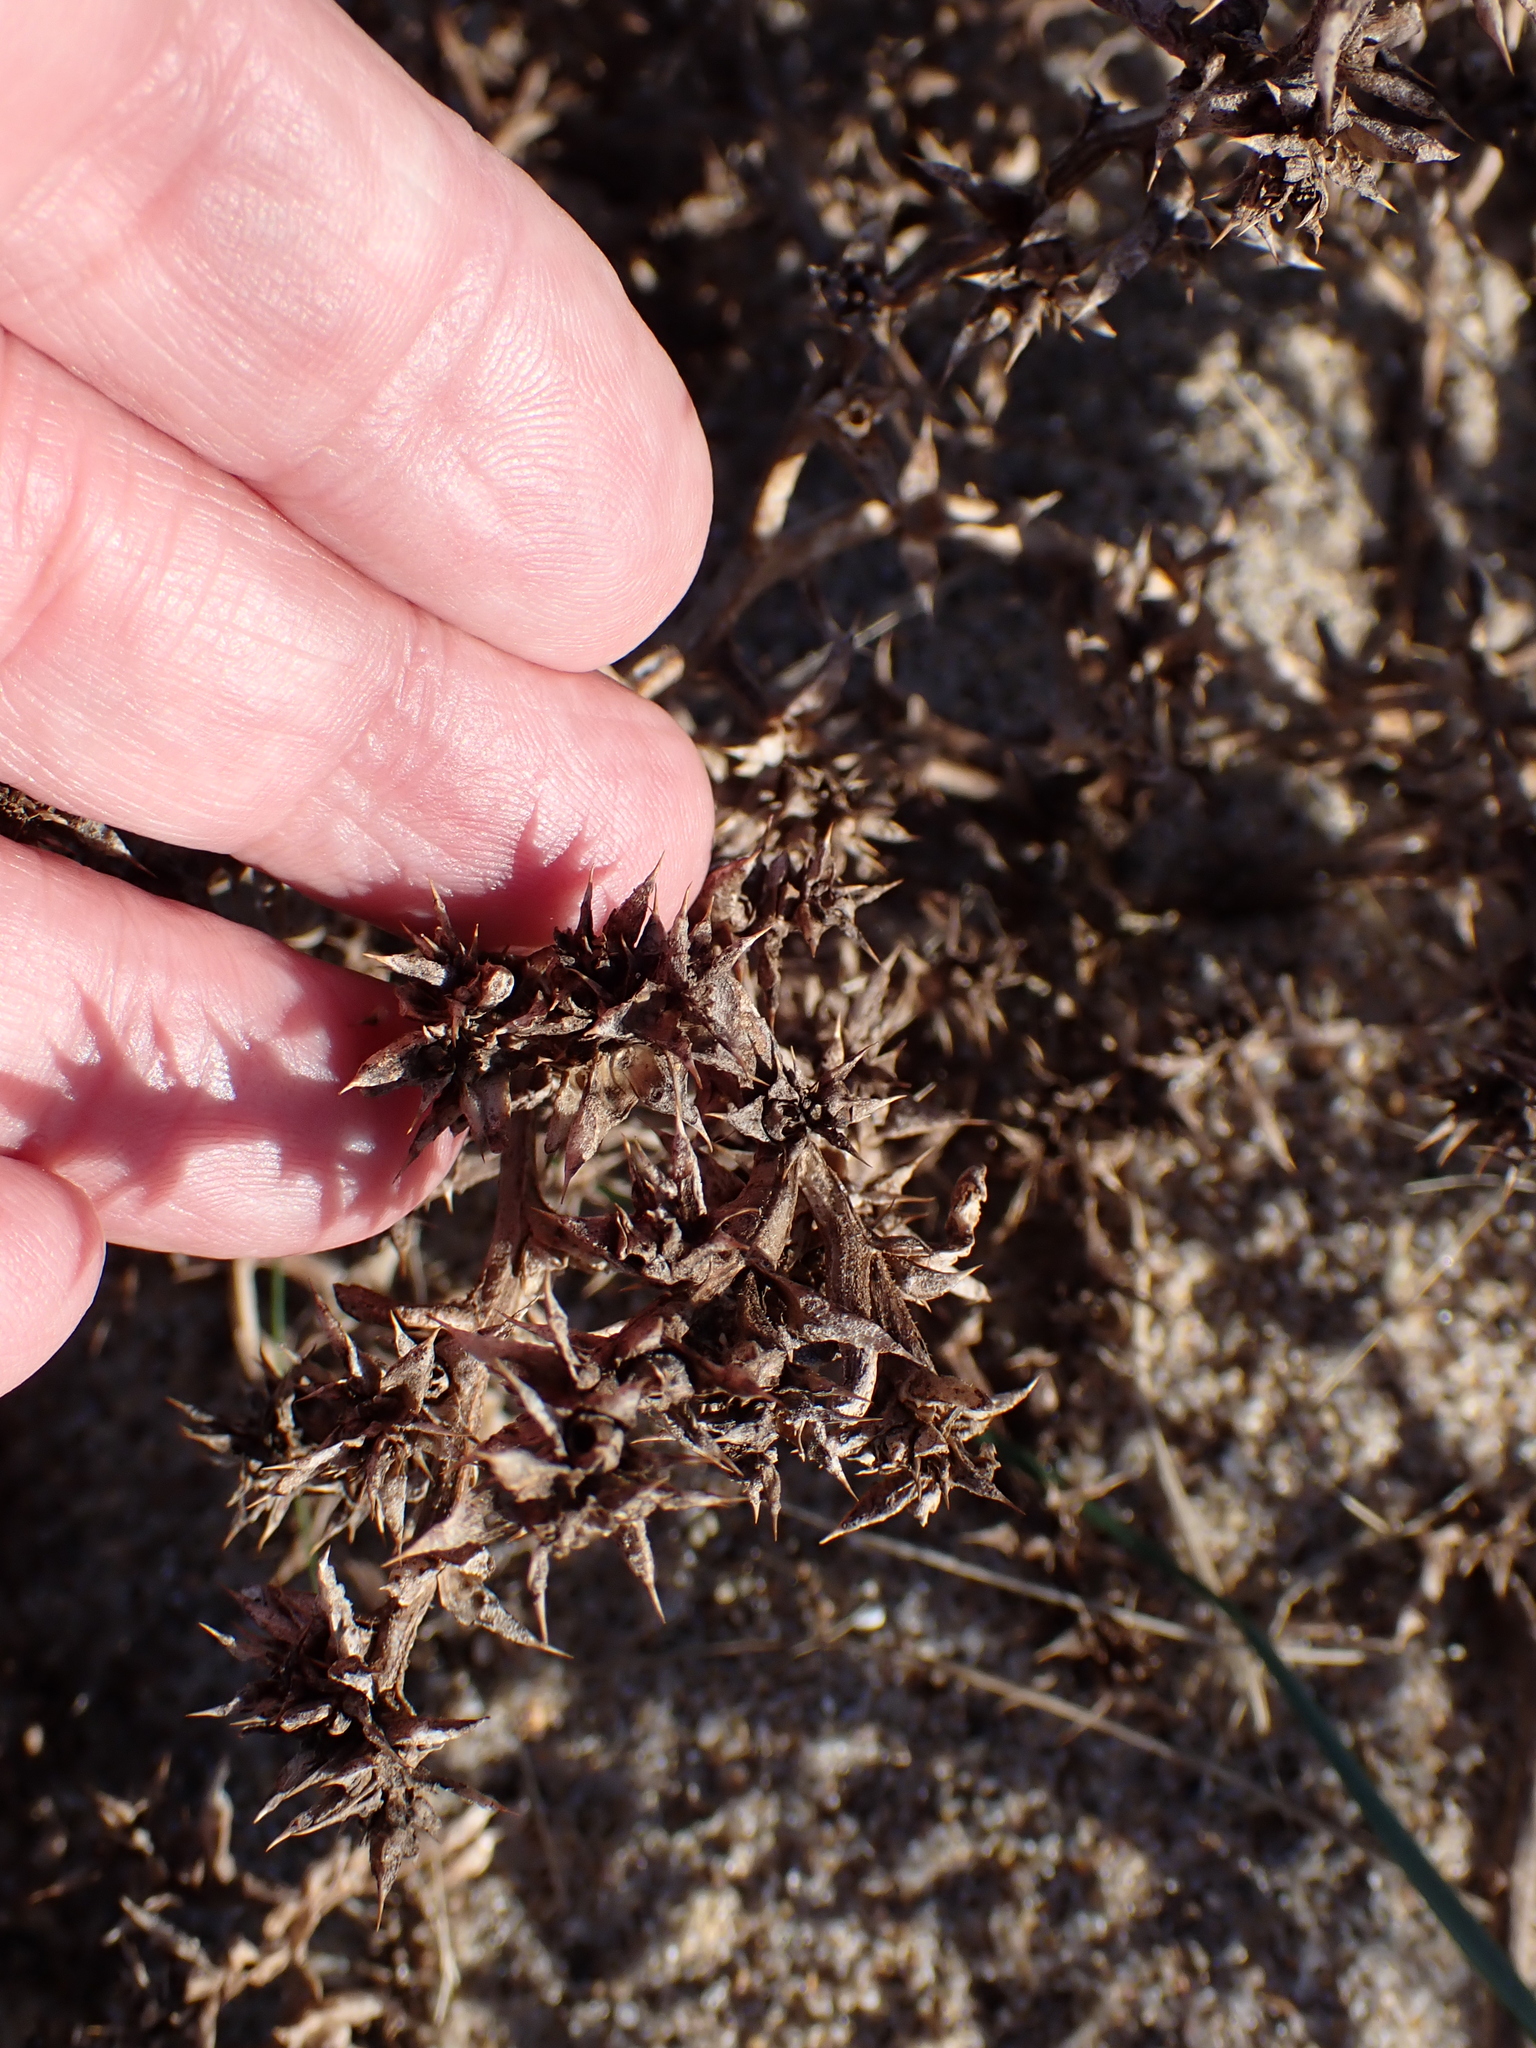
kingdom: Plantae
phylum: Tracheophyta
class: Magnoliopsida
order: Caryophyllales
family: Amaranthaceae
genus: Salsola
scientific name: Salsola kali
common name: Saltwort
